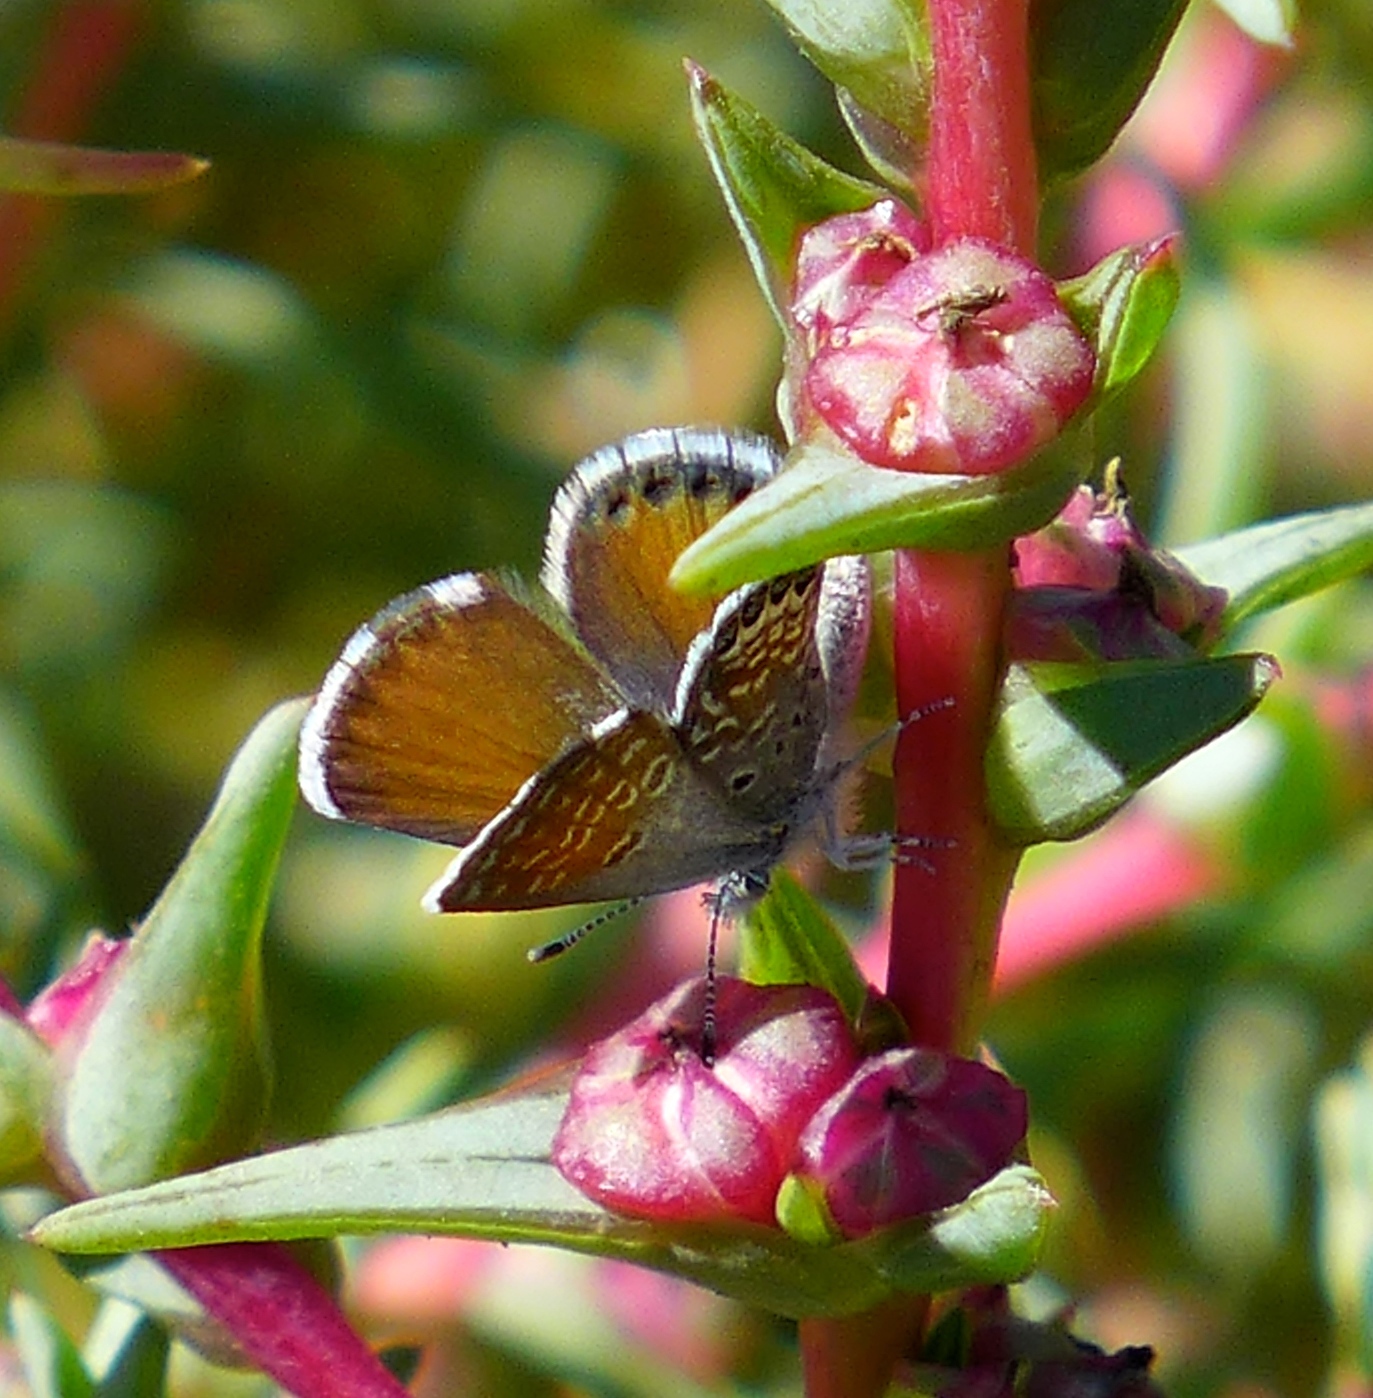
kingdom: Plantae
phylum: Tracheophyta
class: Magnoliopsida
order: Caryophyllales
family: Amaranthaceae
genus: Salsola
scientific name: Salsola soda
